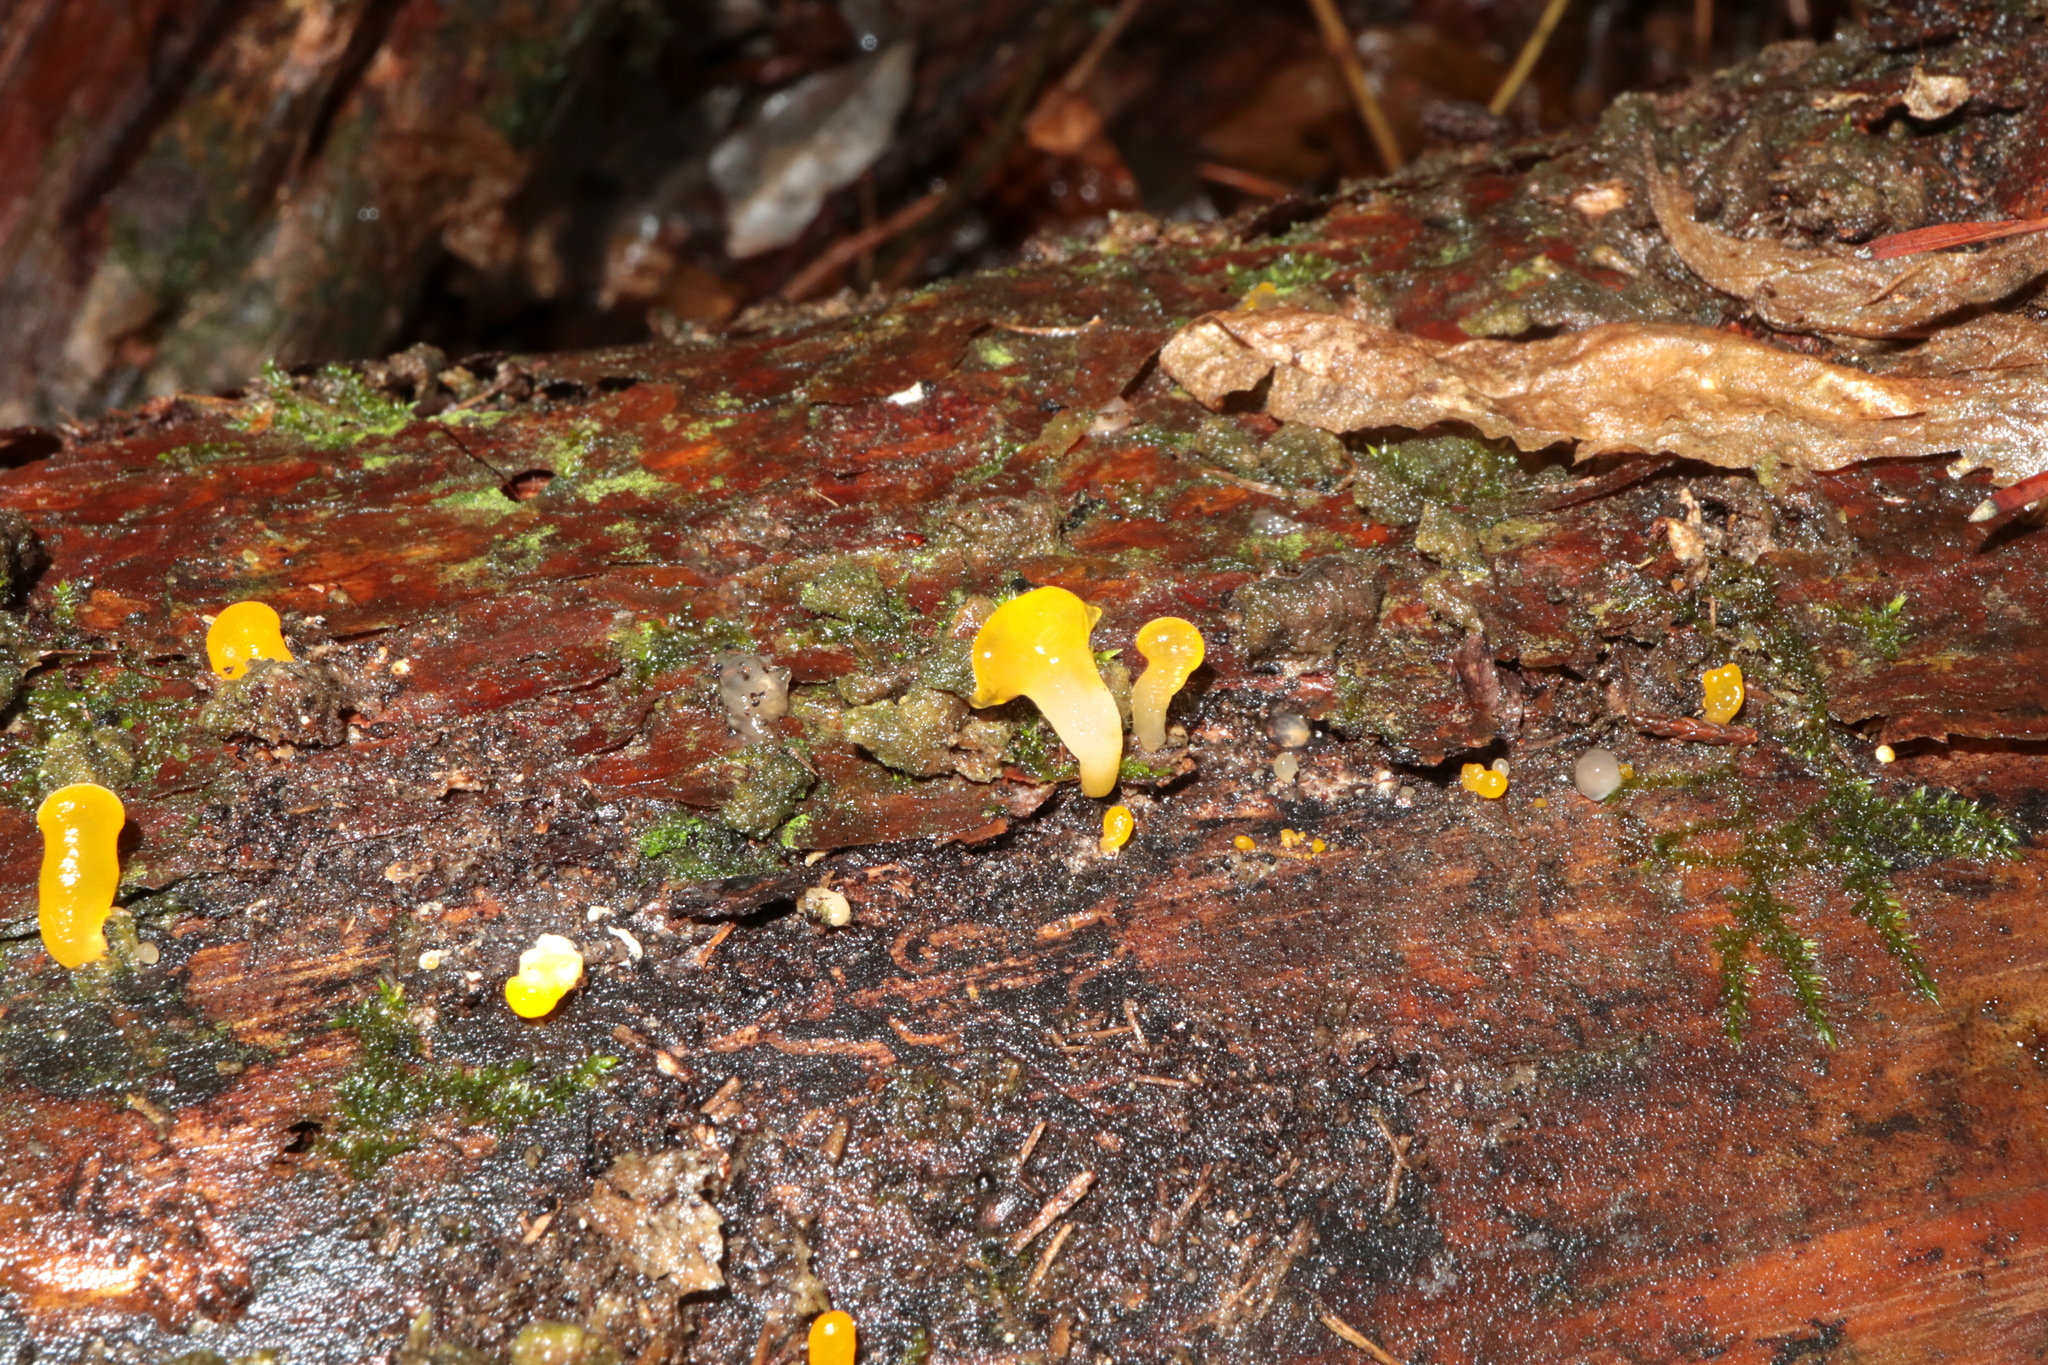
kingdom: Fungi
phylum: Basidiomycota
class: Dacrymycetes
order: Dacrymycetales
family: Dacrymycetaceae
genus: Dacrymyces
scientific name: Dacrymyces spathularius
